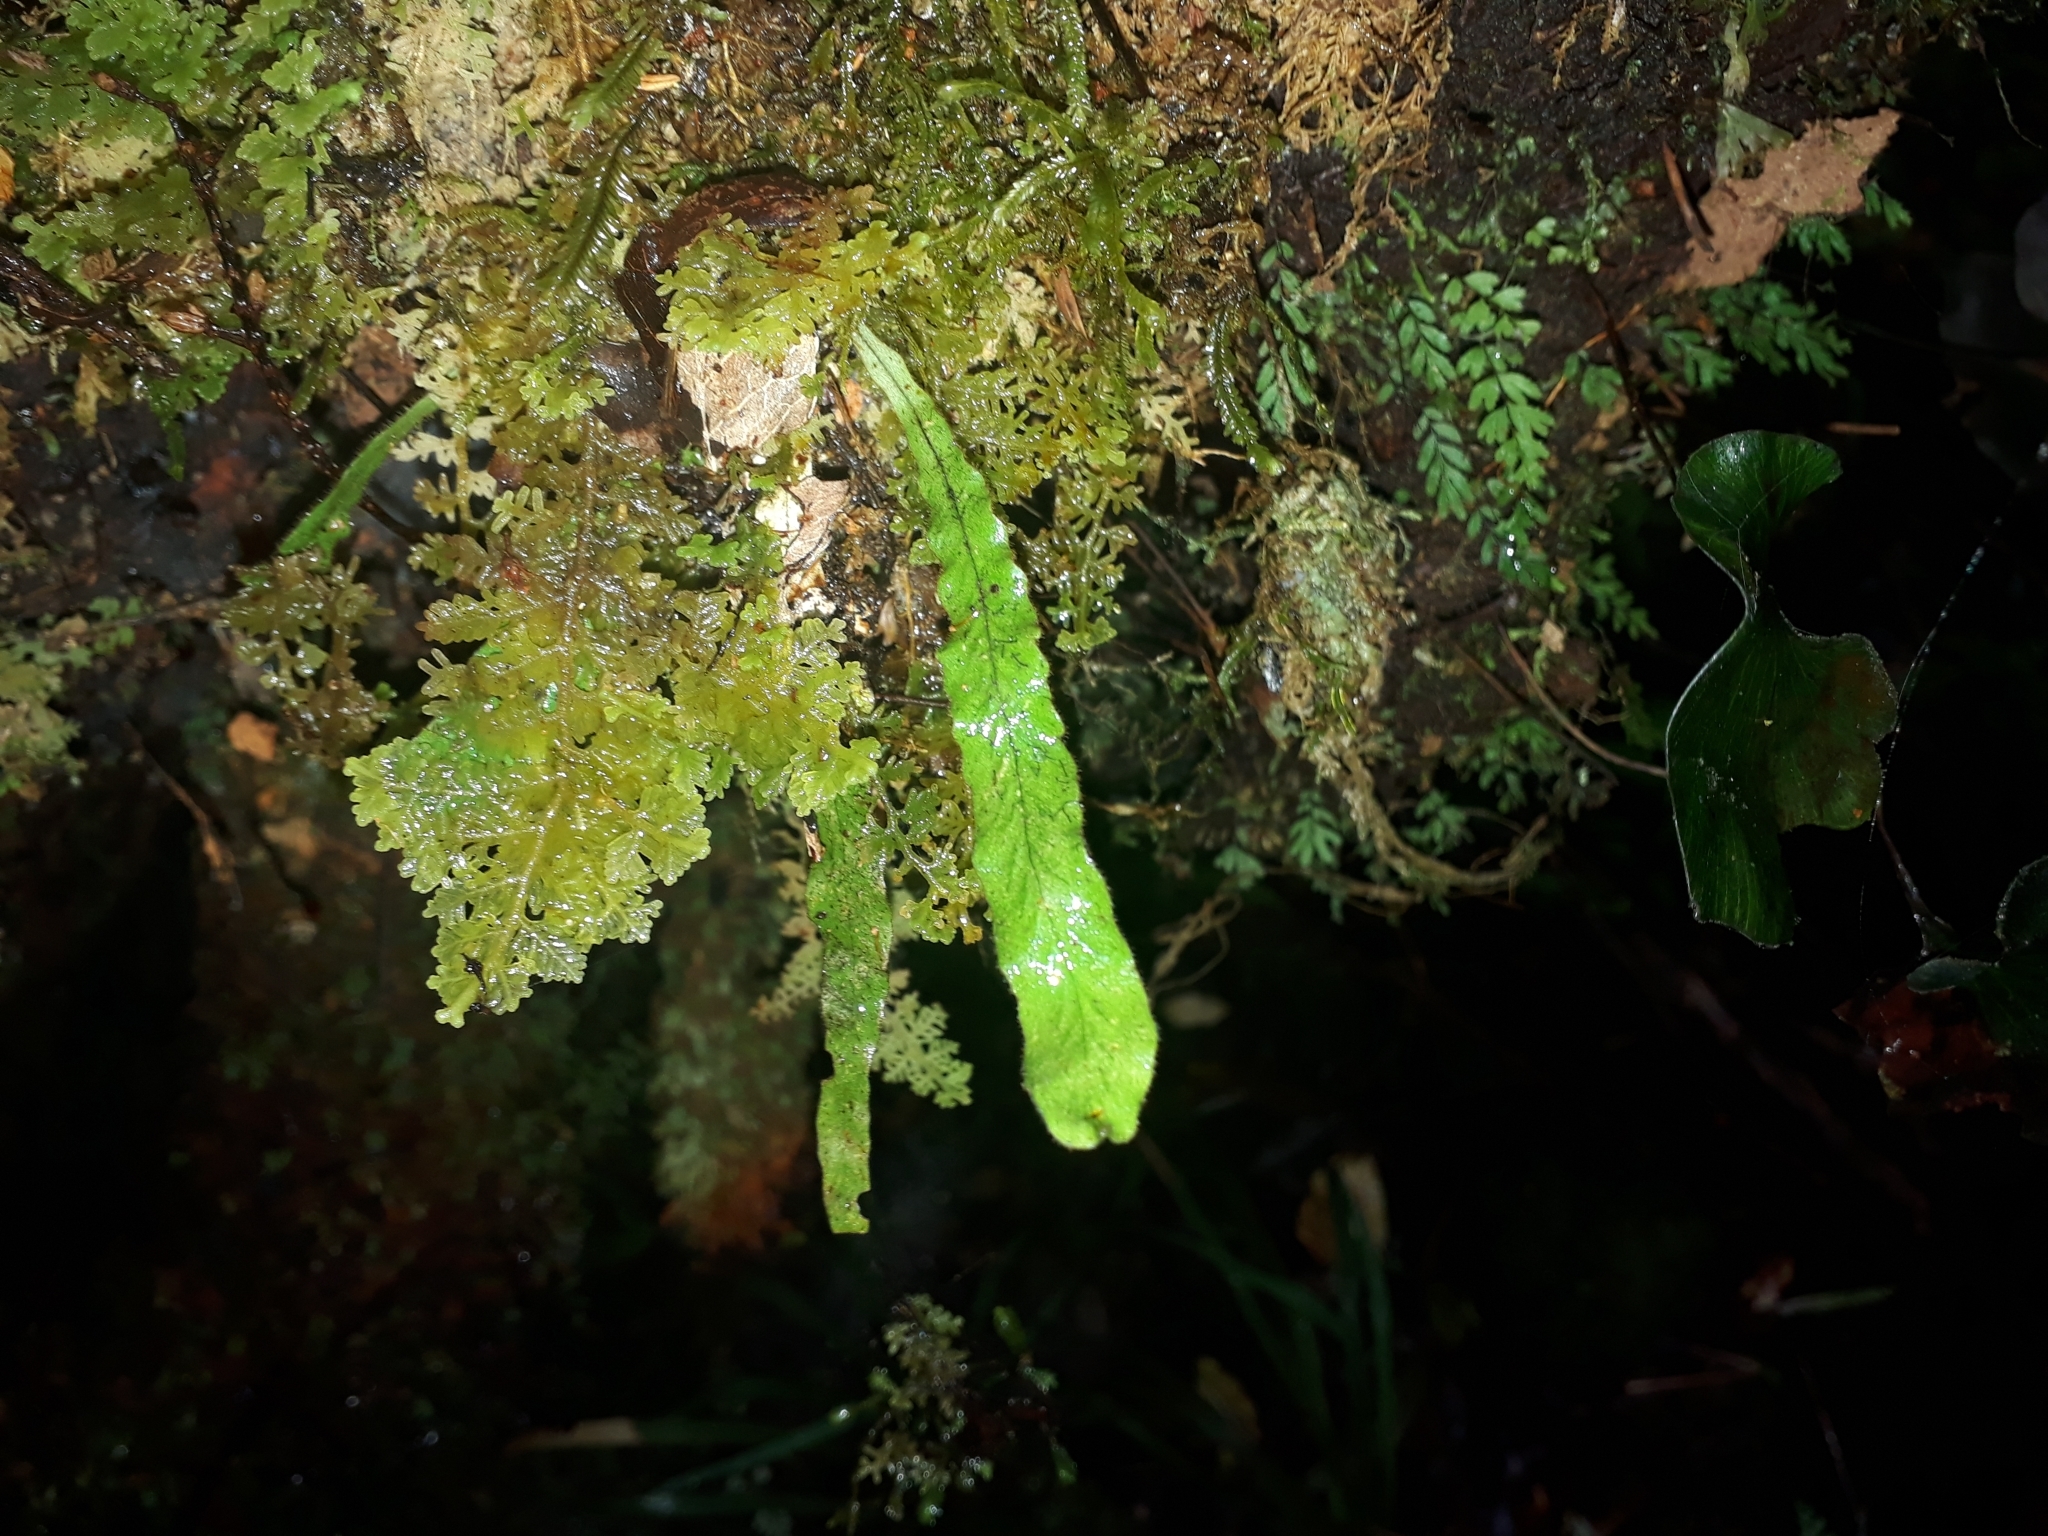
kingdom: Plantae
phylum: Tracheophyta
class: Polypodiopsida
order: Polypodiales
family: Polypodiaceae
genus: Notogrammitis
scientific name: Notogrammitis pseudociliata
